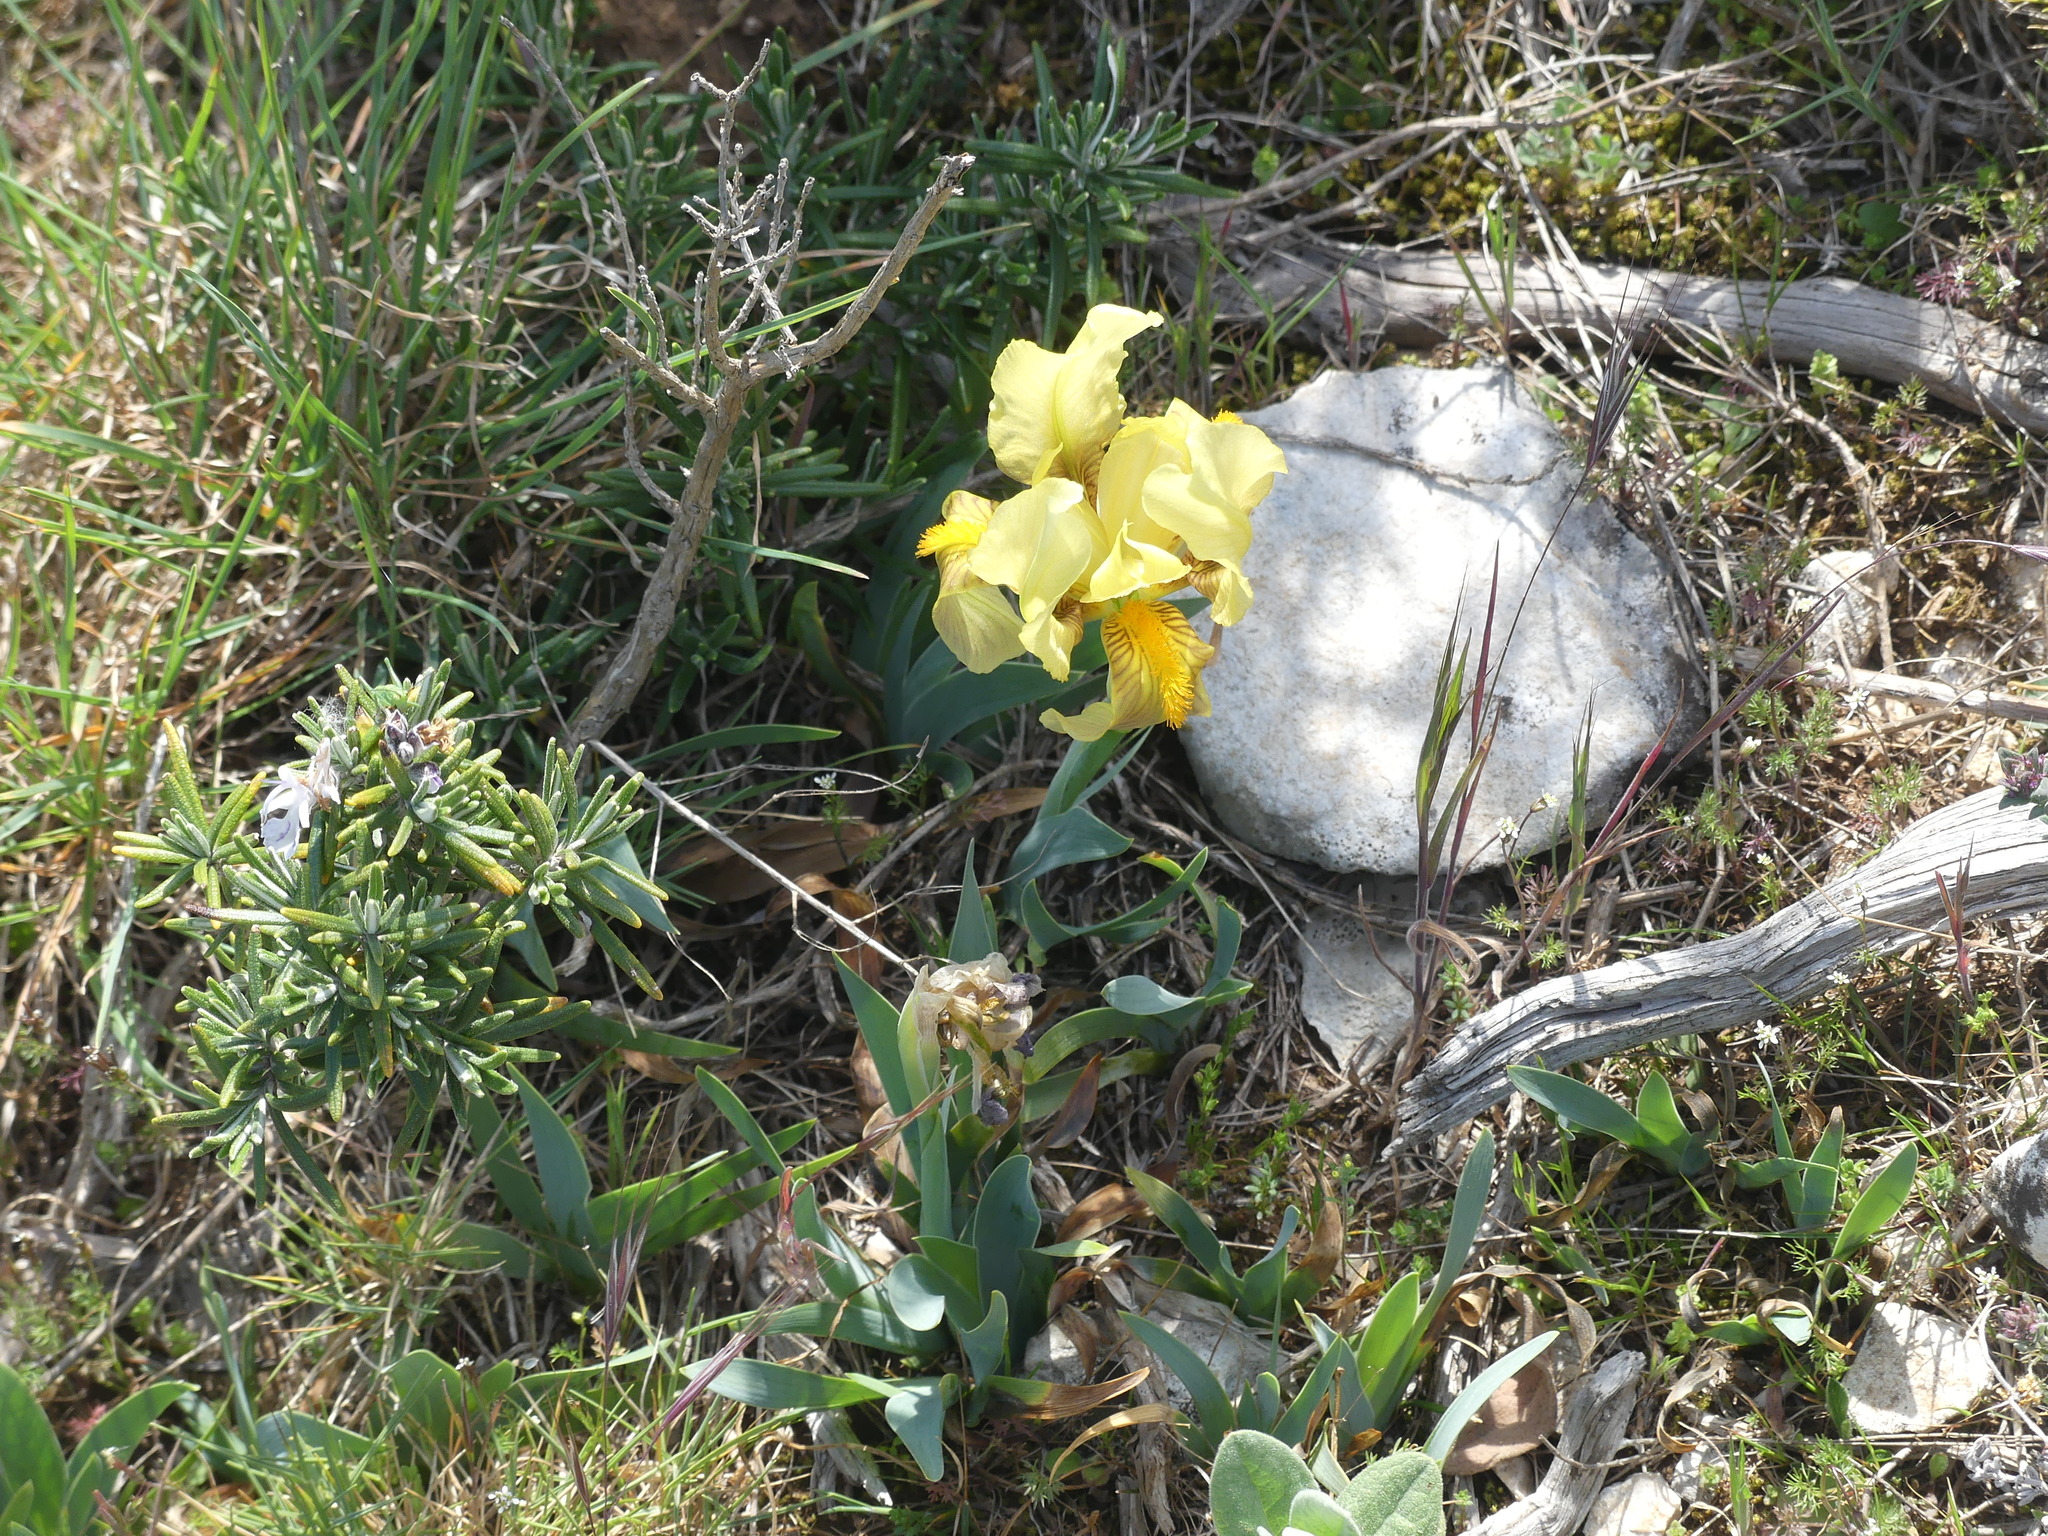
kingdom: Plantae
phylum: Tracheophyta
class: Liliopsida
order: Asparagales
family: Iridaceae
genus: Iris
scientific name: Iris lutescens
